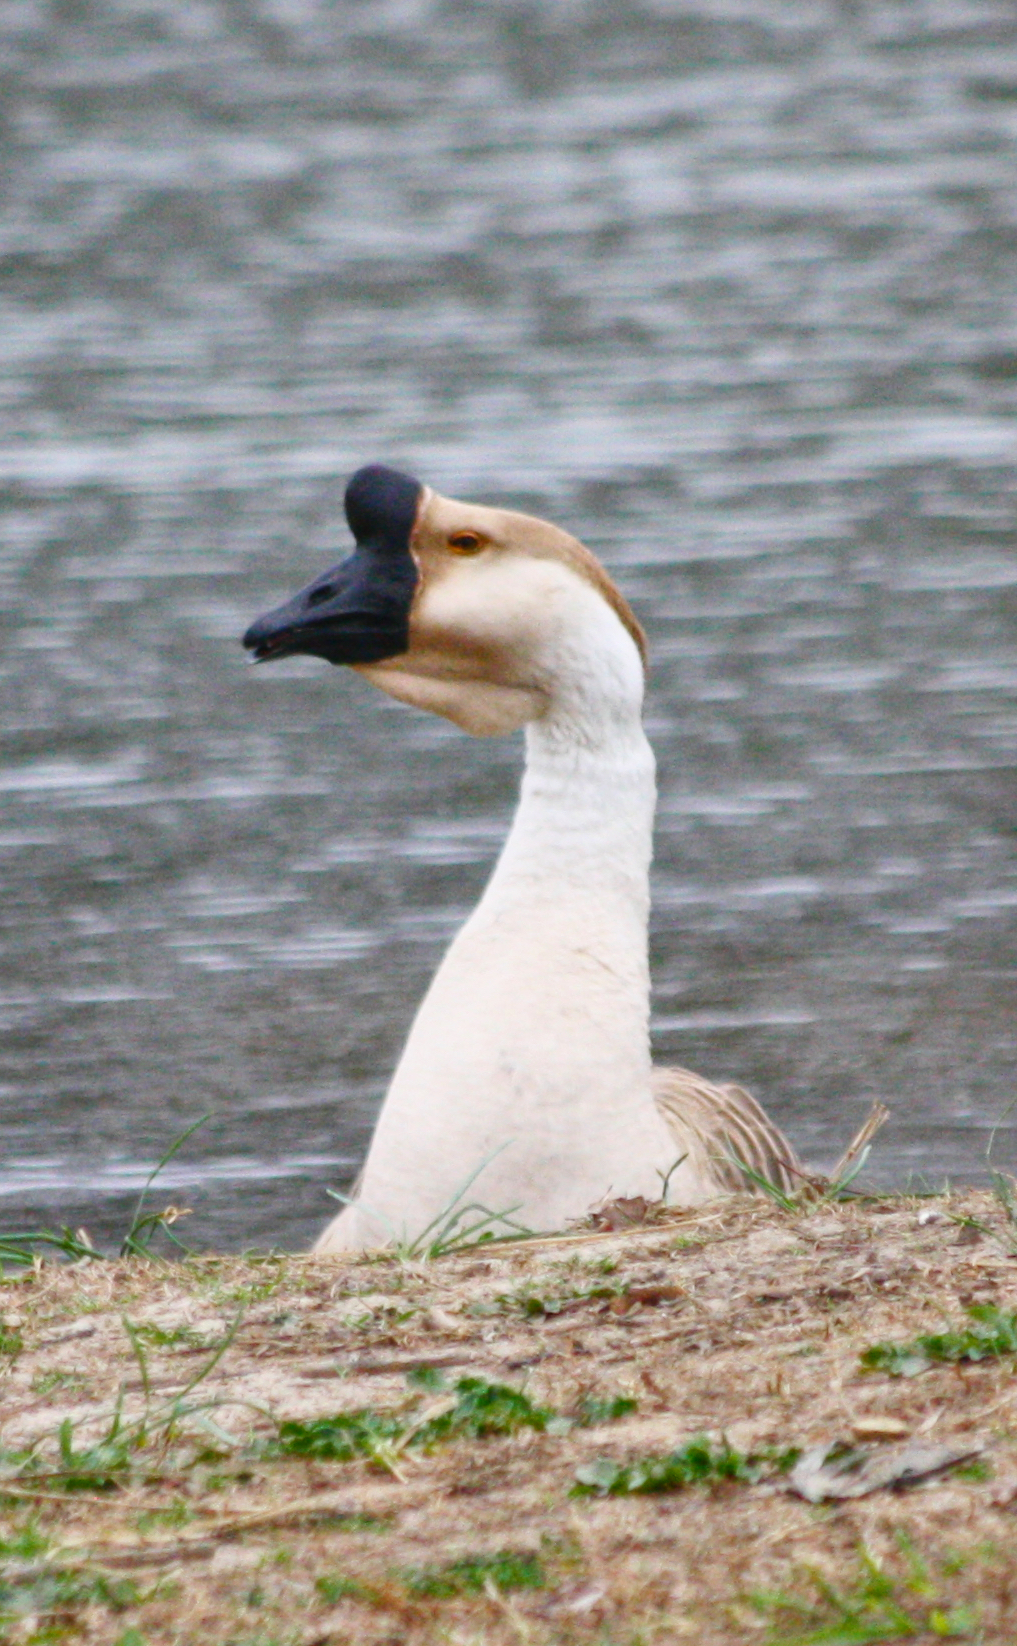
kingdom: Animalia
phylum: Chordata
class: Aves
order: Anseriformes
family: Anatidae
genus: Anser
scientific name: Anser cygnoides
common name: Swan goose
